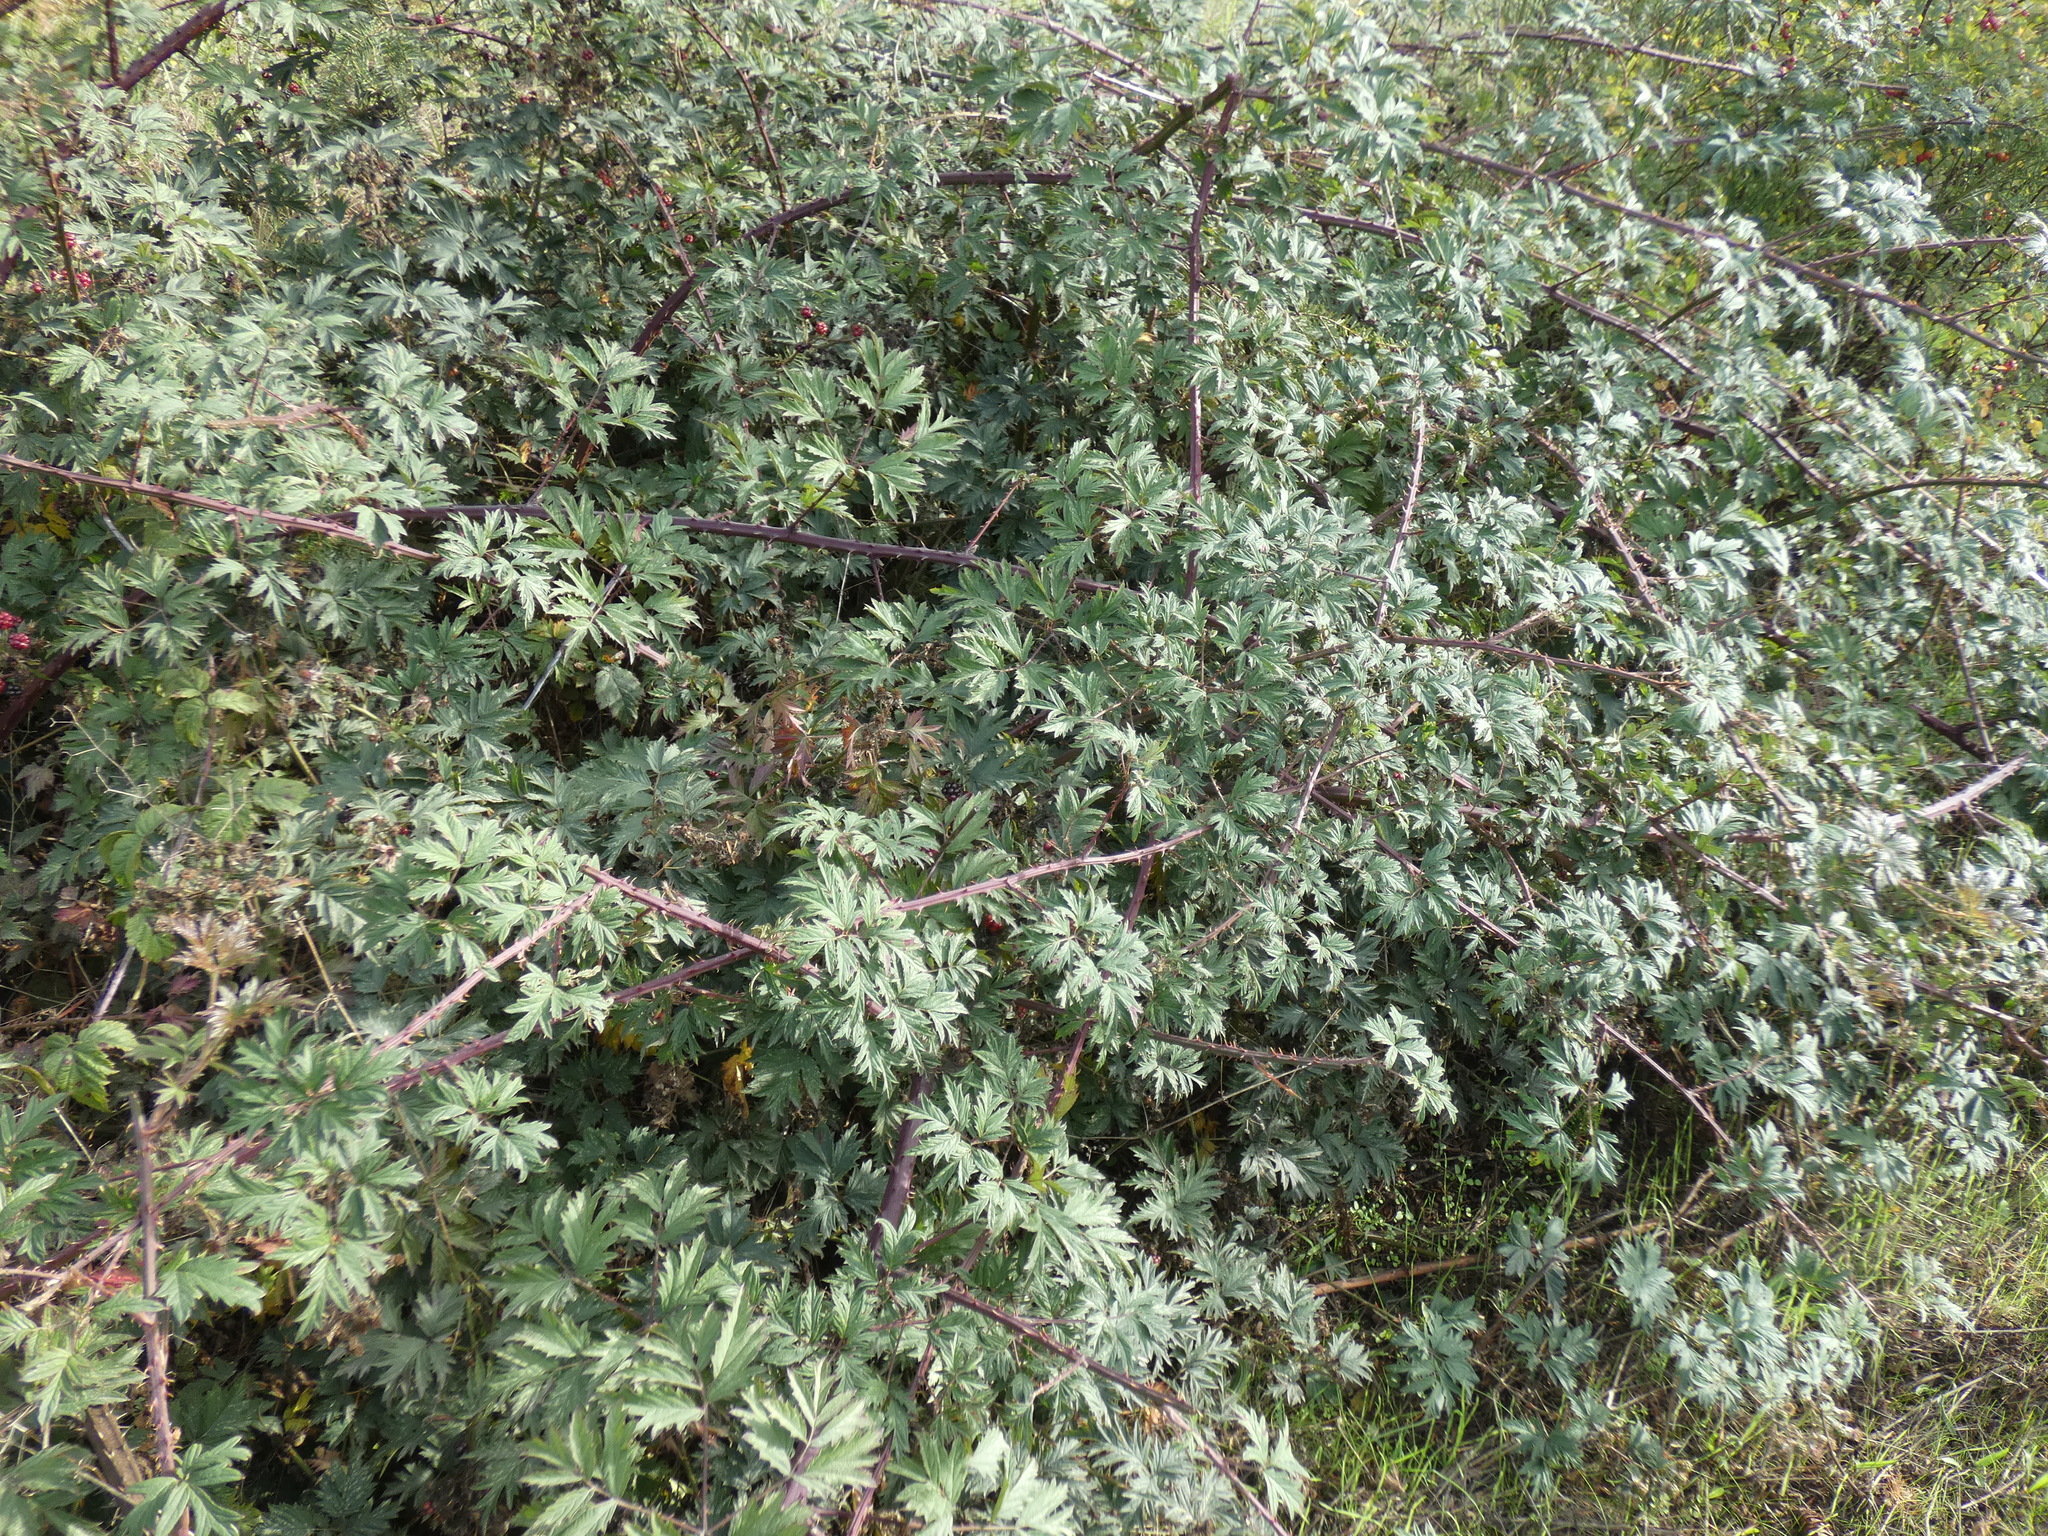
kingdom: Plantae
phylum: Tracheophyta
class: Magnoliopsida
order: Rosales
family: Rosaceae
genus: Rubus
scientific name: Rubus laciniatus
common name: Evergreen blackberry
